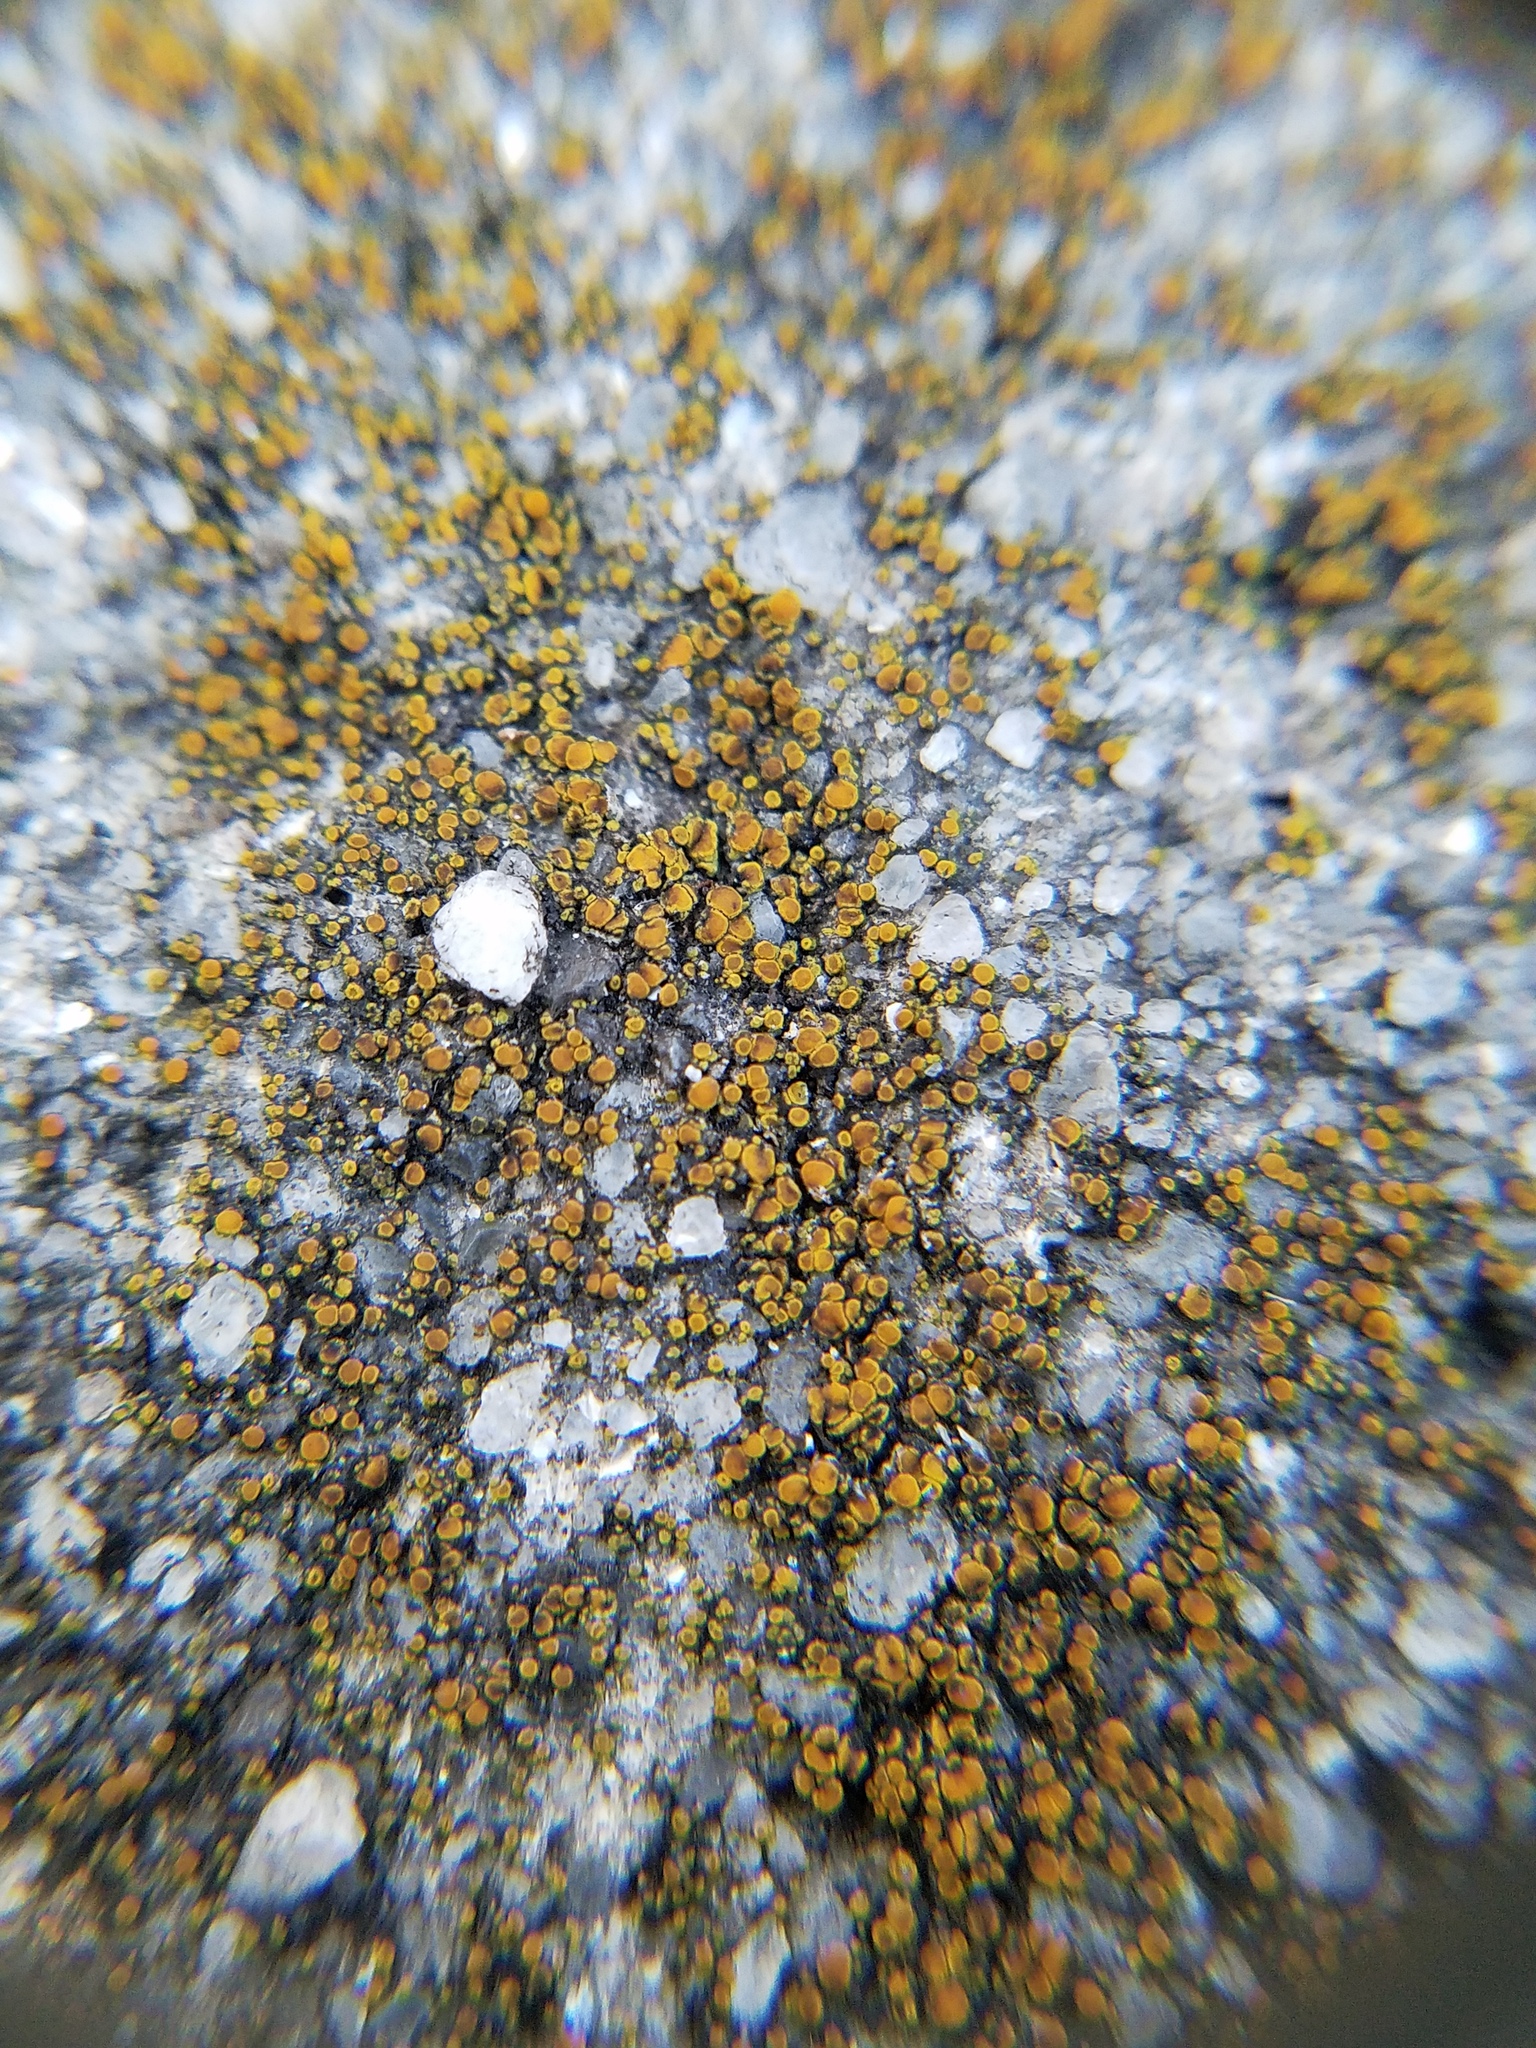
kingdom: Fungi
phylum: Ascomycota
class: Lecanoromycetes
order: Teloschistales
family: Teloschistaceae
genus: Xanthocarpia
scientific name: Xanthocarpia feracissima
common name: Sidewalk firedot
